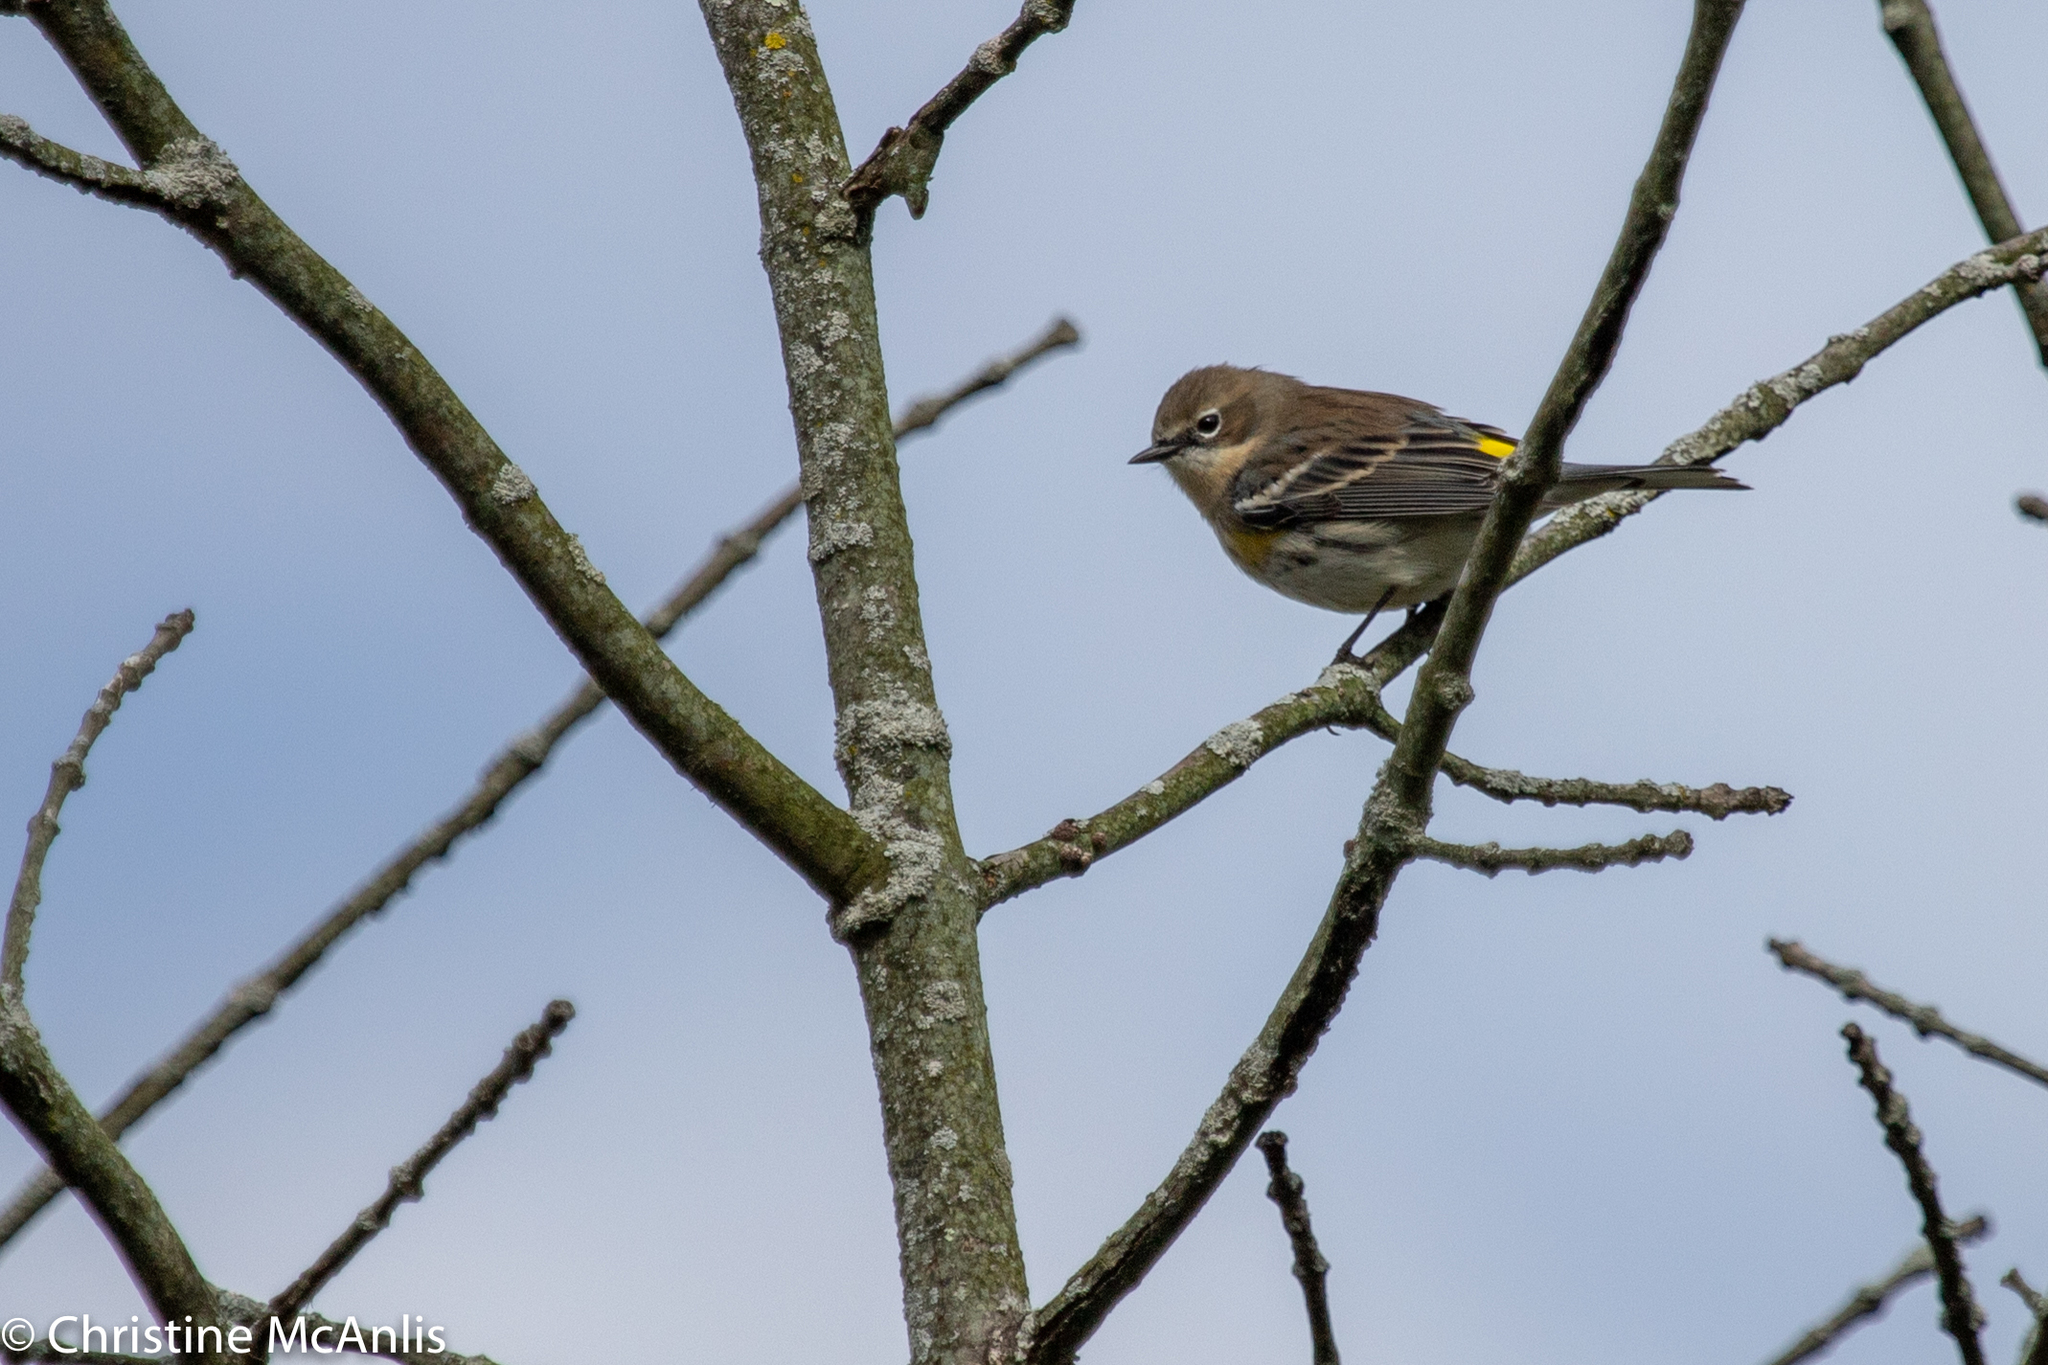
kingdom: Animalia
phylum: Chordata
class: Aves
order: Passeriformes
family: Parulidae
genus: Setophaga
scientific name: Setophaga coronata
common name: Myrtle warbler
